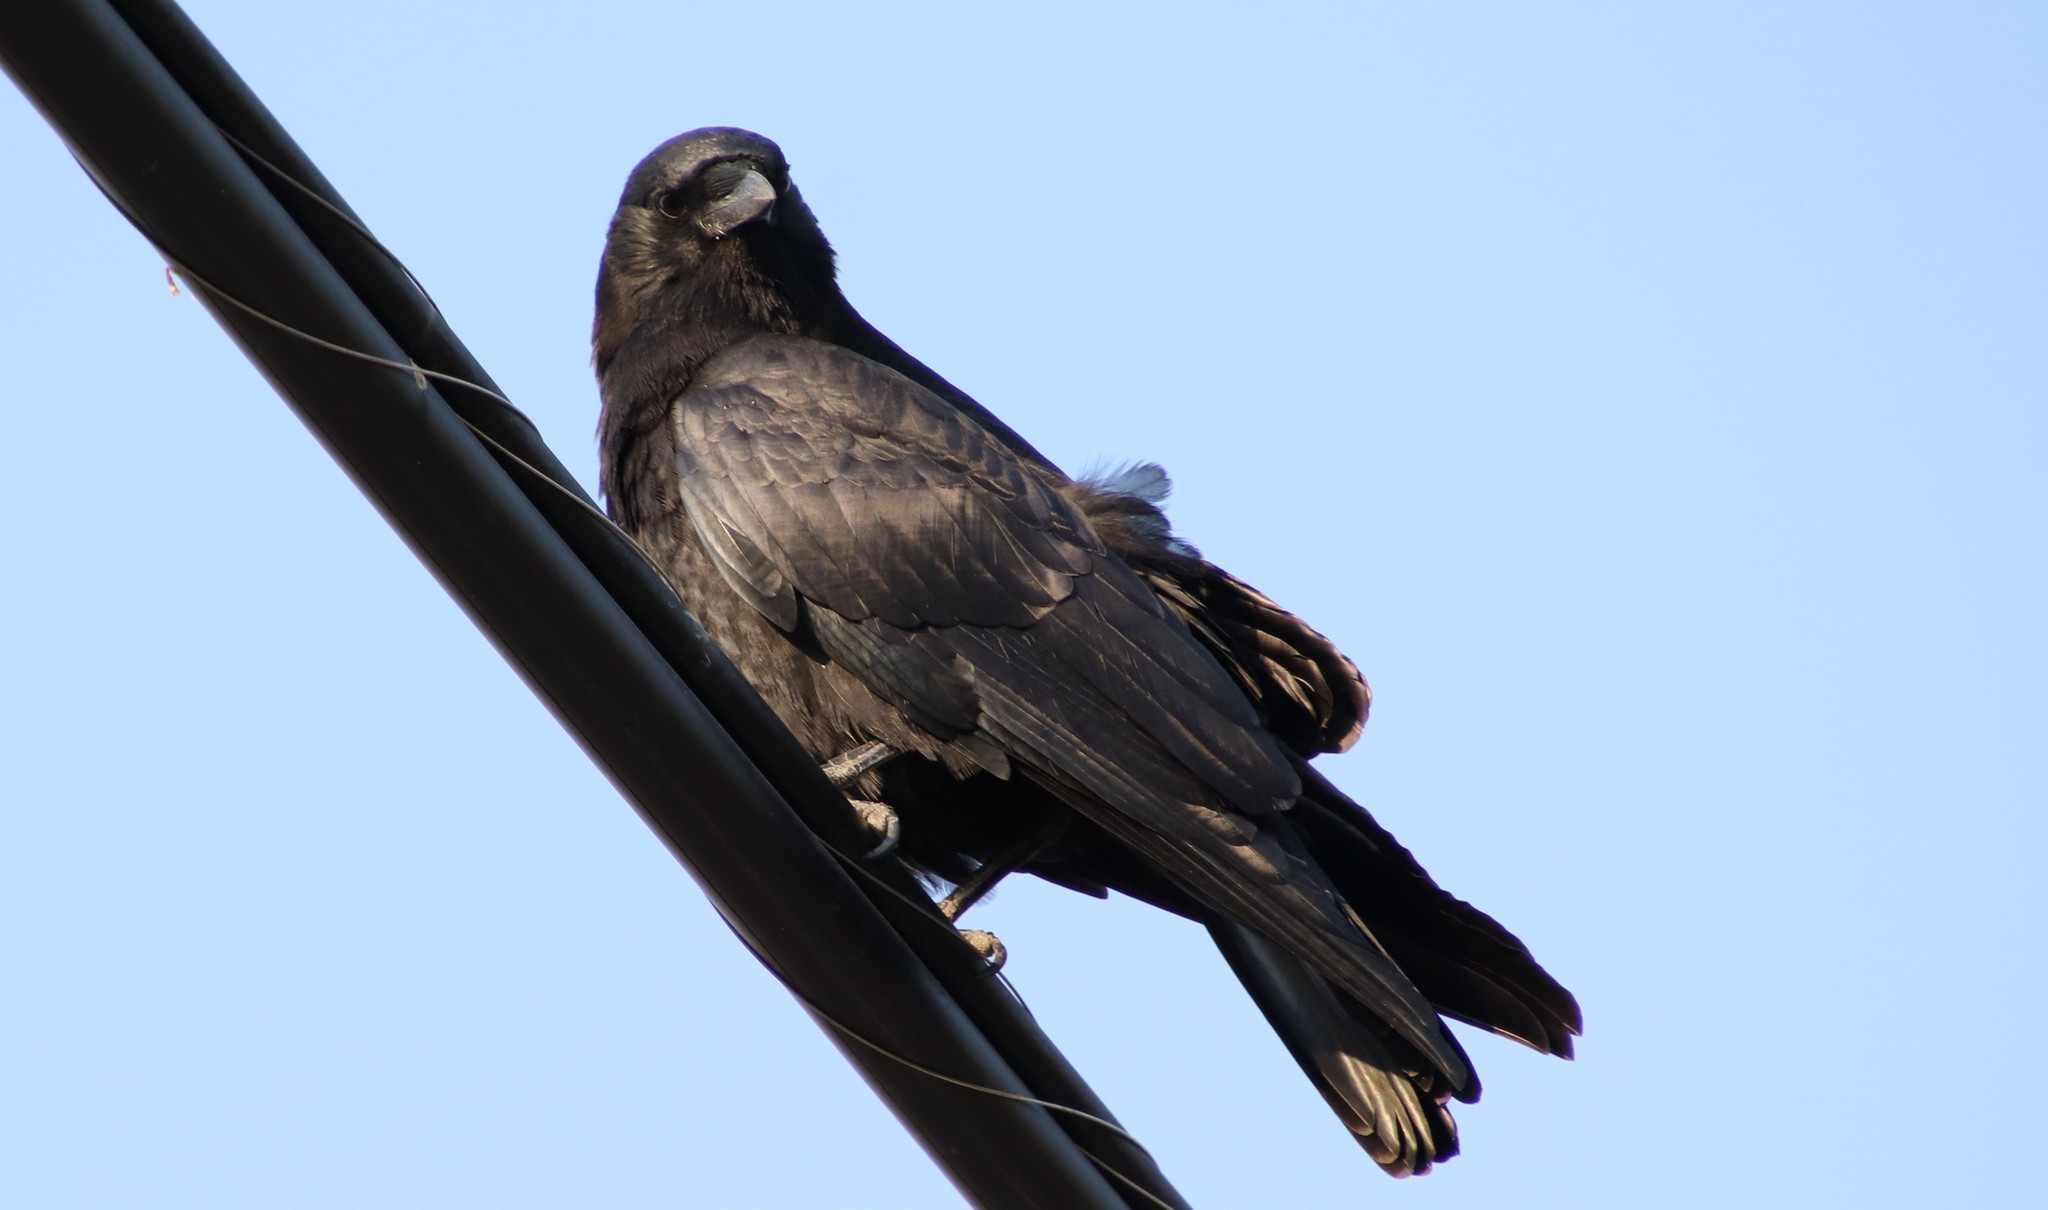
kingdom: Animalia
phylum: Chordata
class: Aves
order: Passeriformes
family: Corvidae
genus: Corvus
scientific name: Corvus brachyrhynchos
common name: American crow
